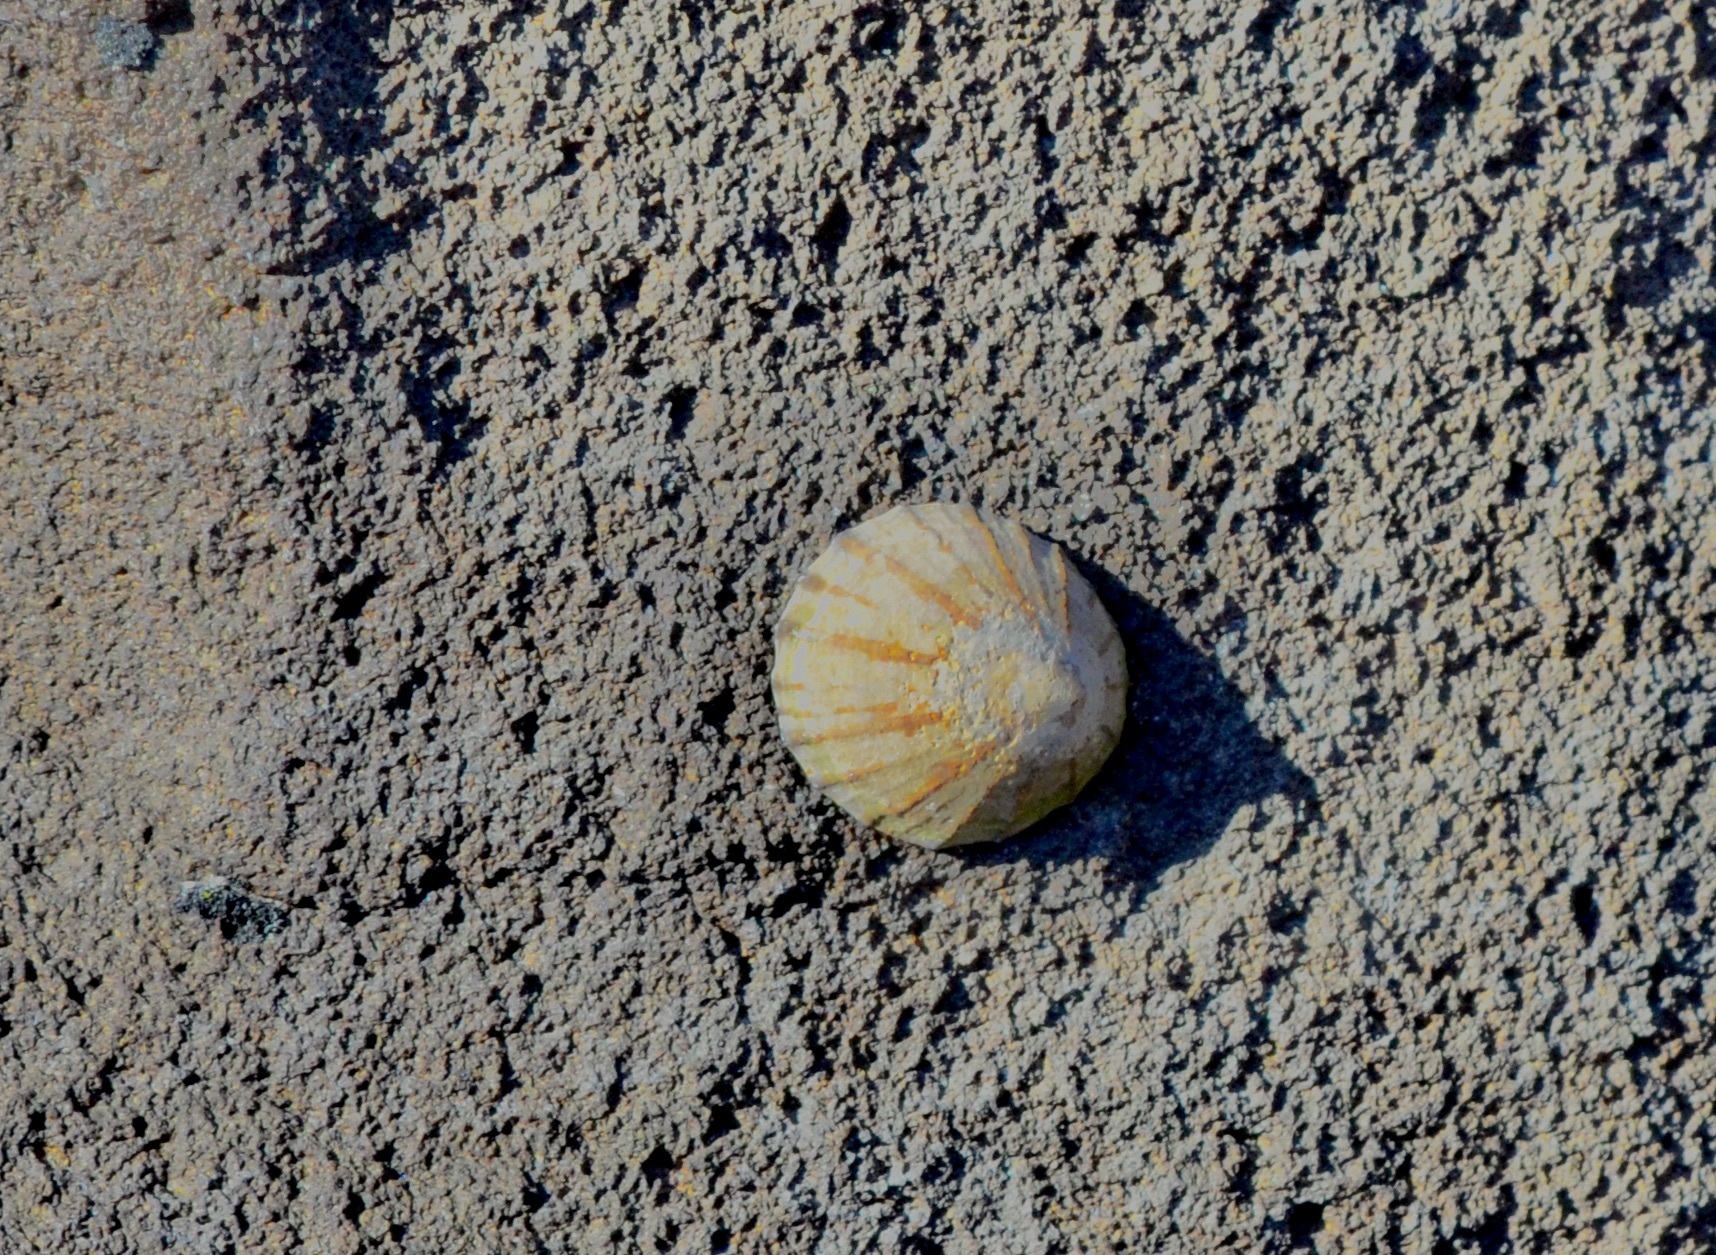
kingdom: Animalia
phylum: Mollusca
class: Gastropoda
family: Nacellidae
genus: Cellana
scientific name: Cellana radians
